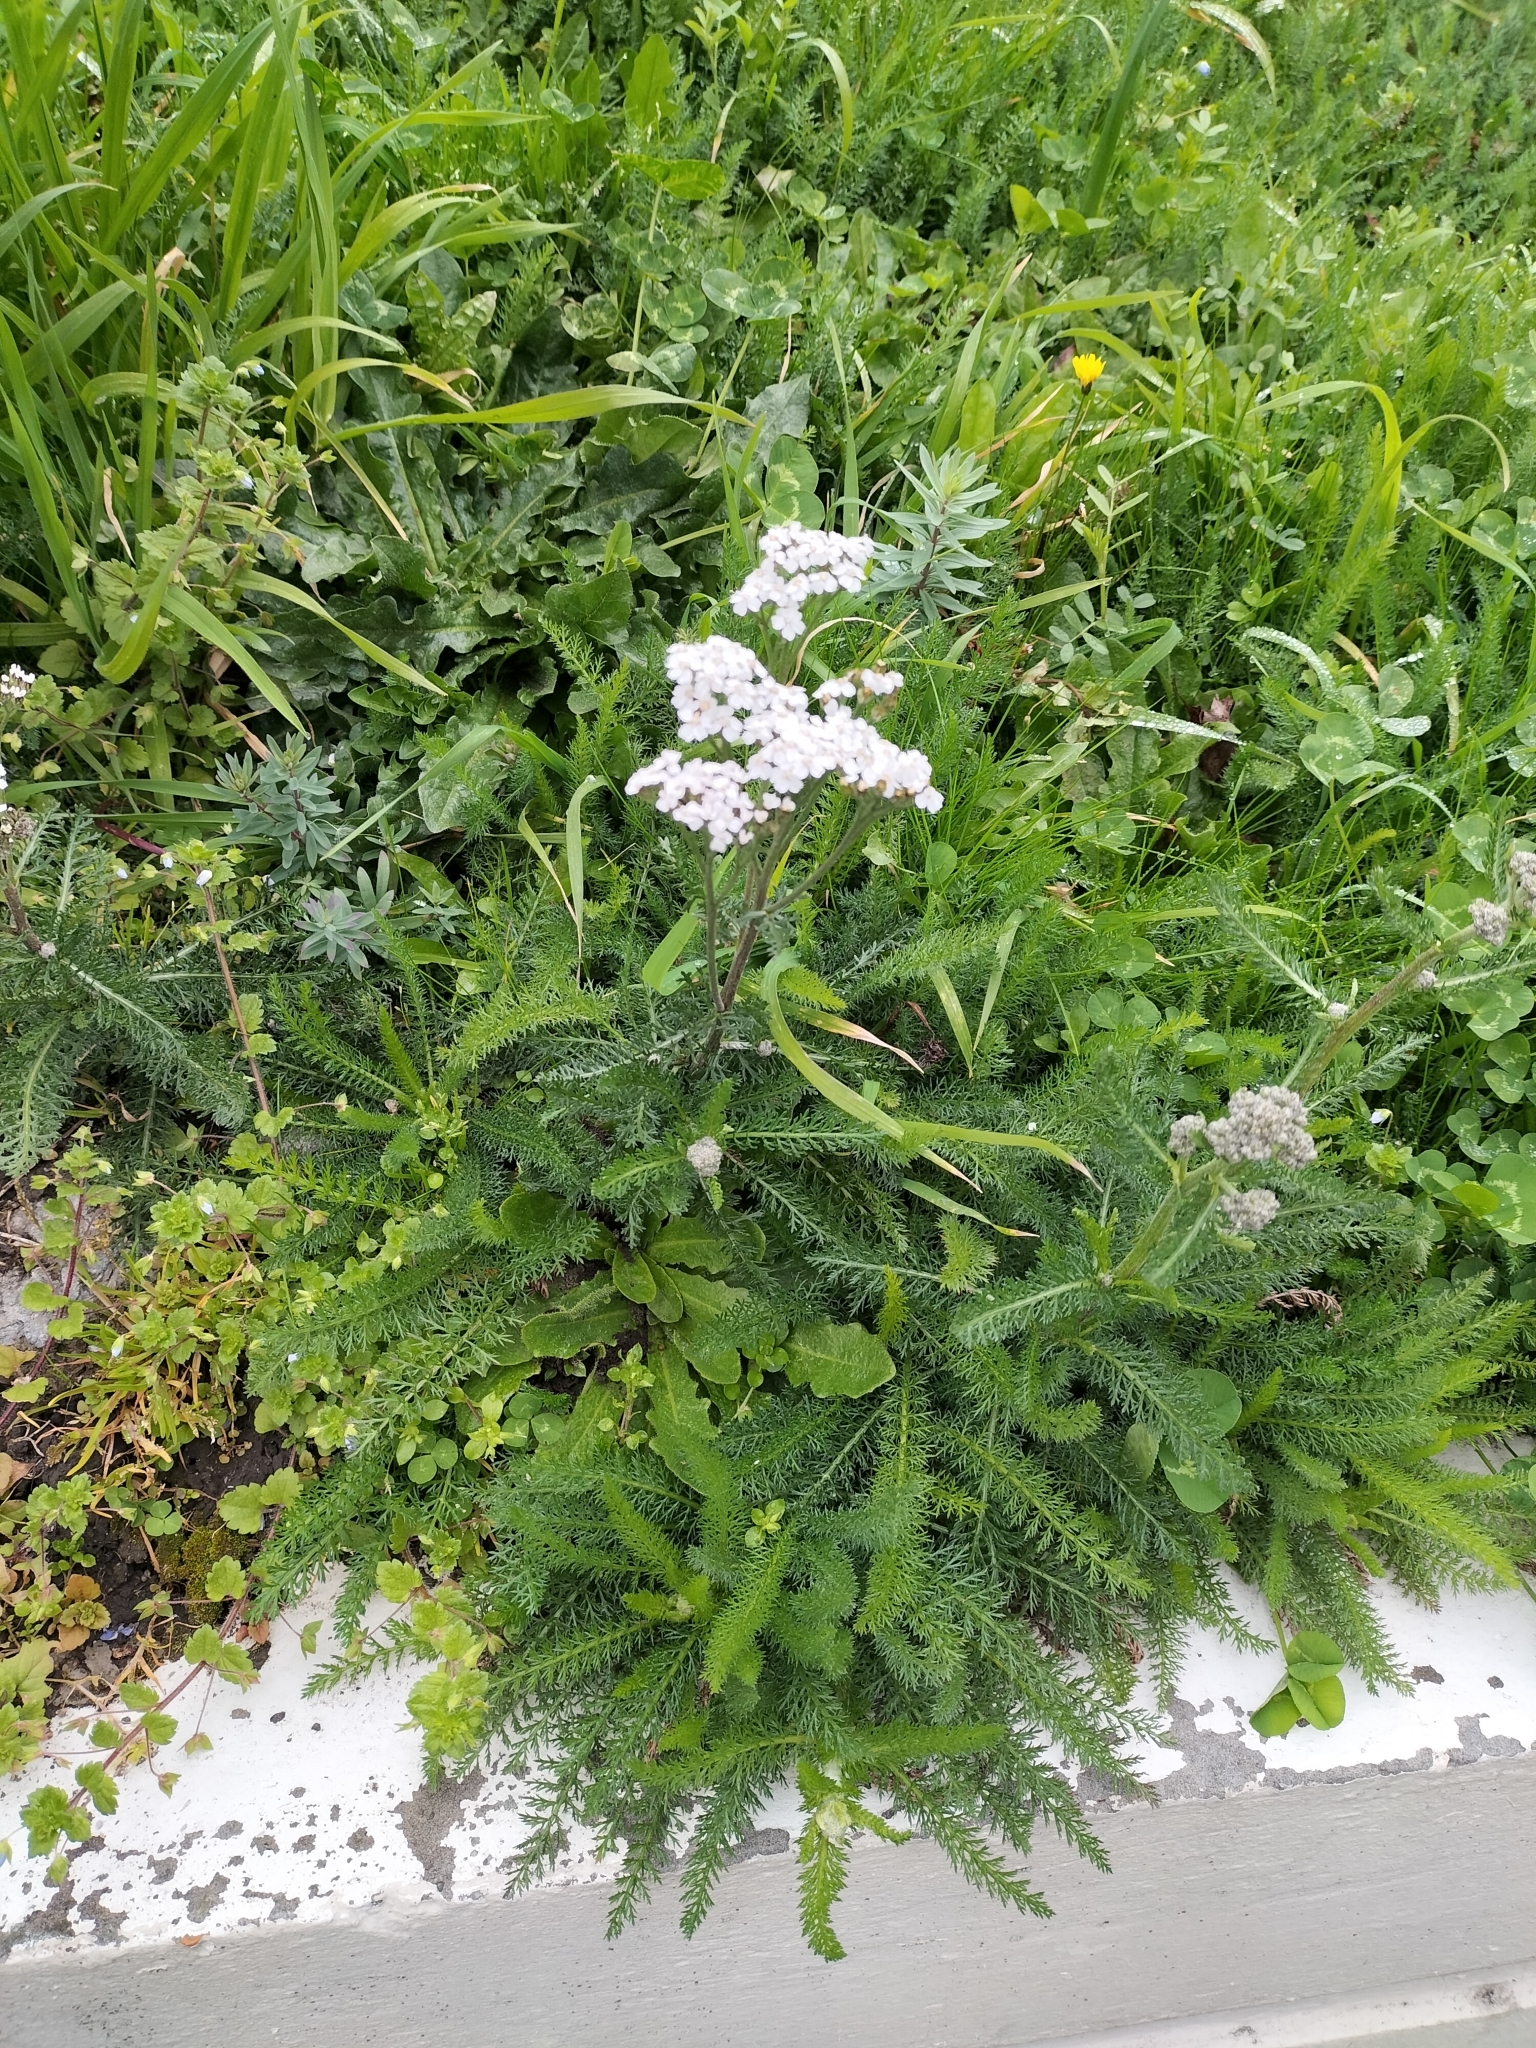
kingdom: Plantae
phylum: Tracheophyta
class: Magnoliopsida
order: Asterales
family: Asteraceae
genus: Achillea
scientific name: Achillea millefolium
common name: Yarrow
